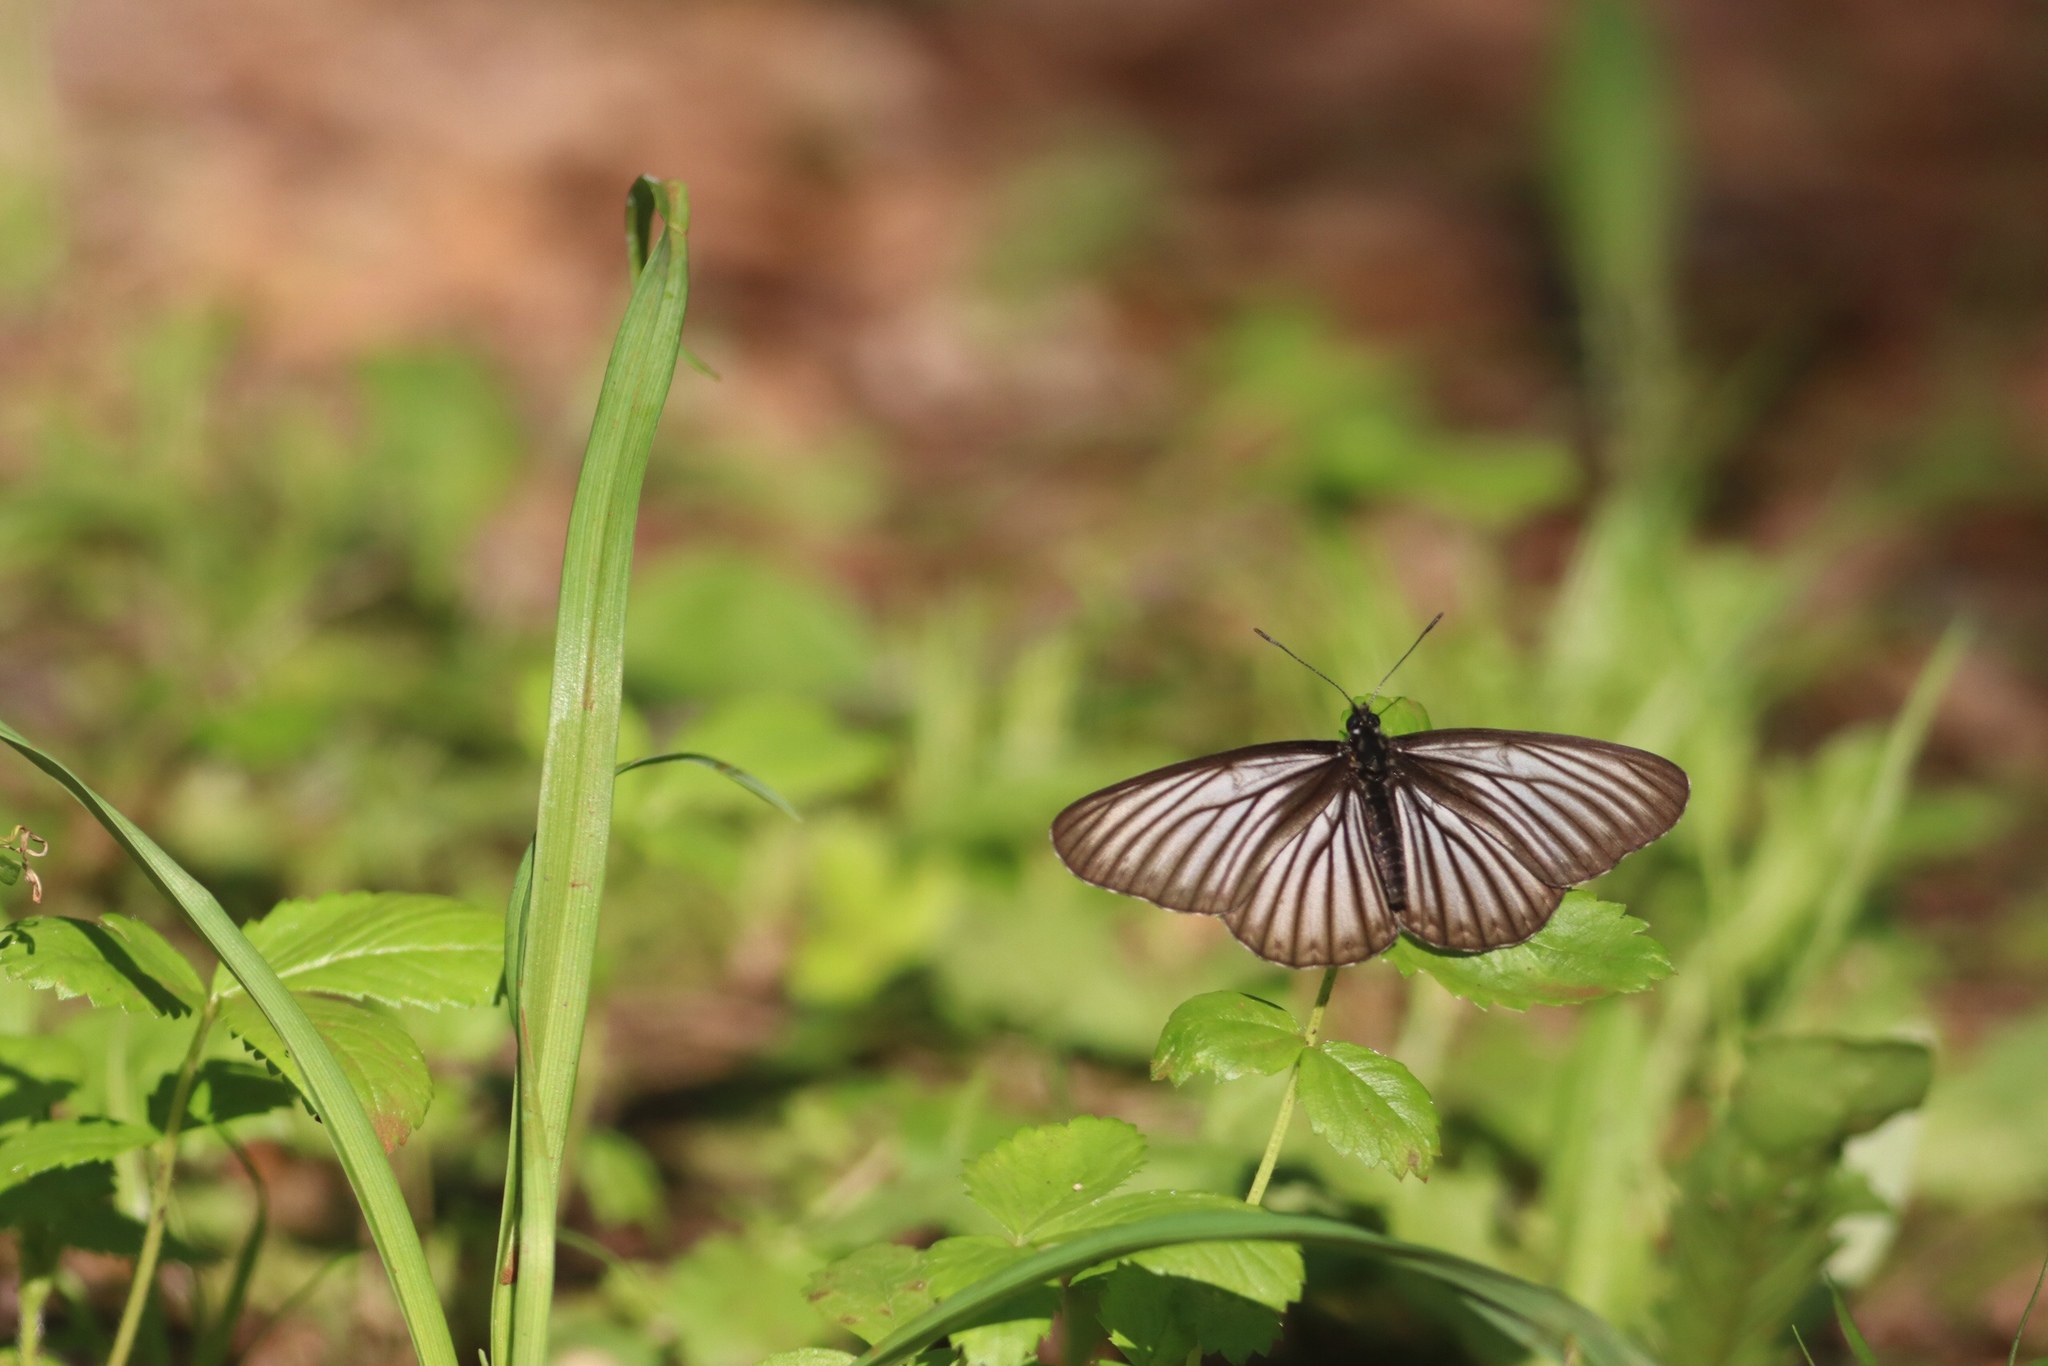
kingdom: Animalia
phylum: Arthropoda
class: Insecta
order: Lepidoptera
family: Nymphalidae
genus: Aldania
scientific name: Aldania raddei
